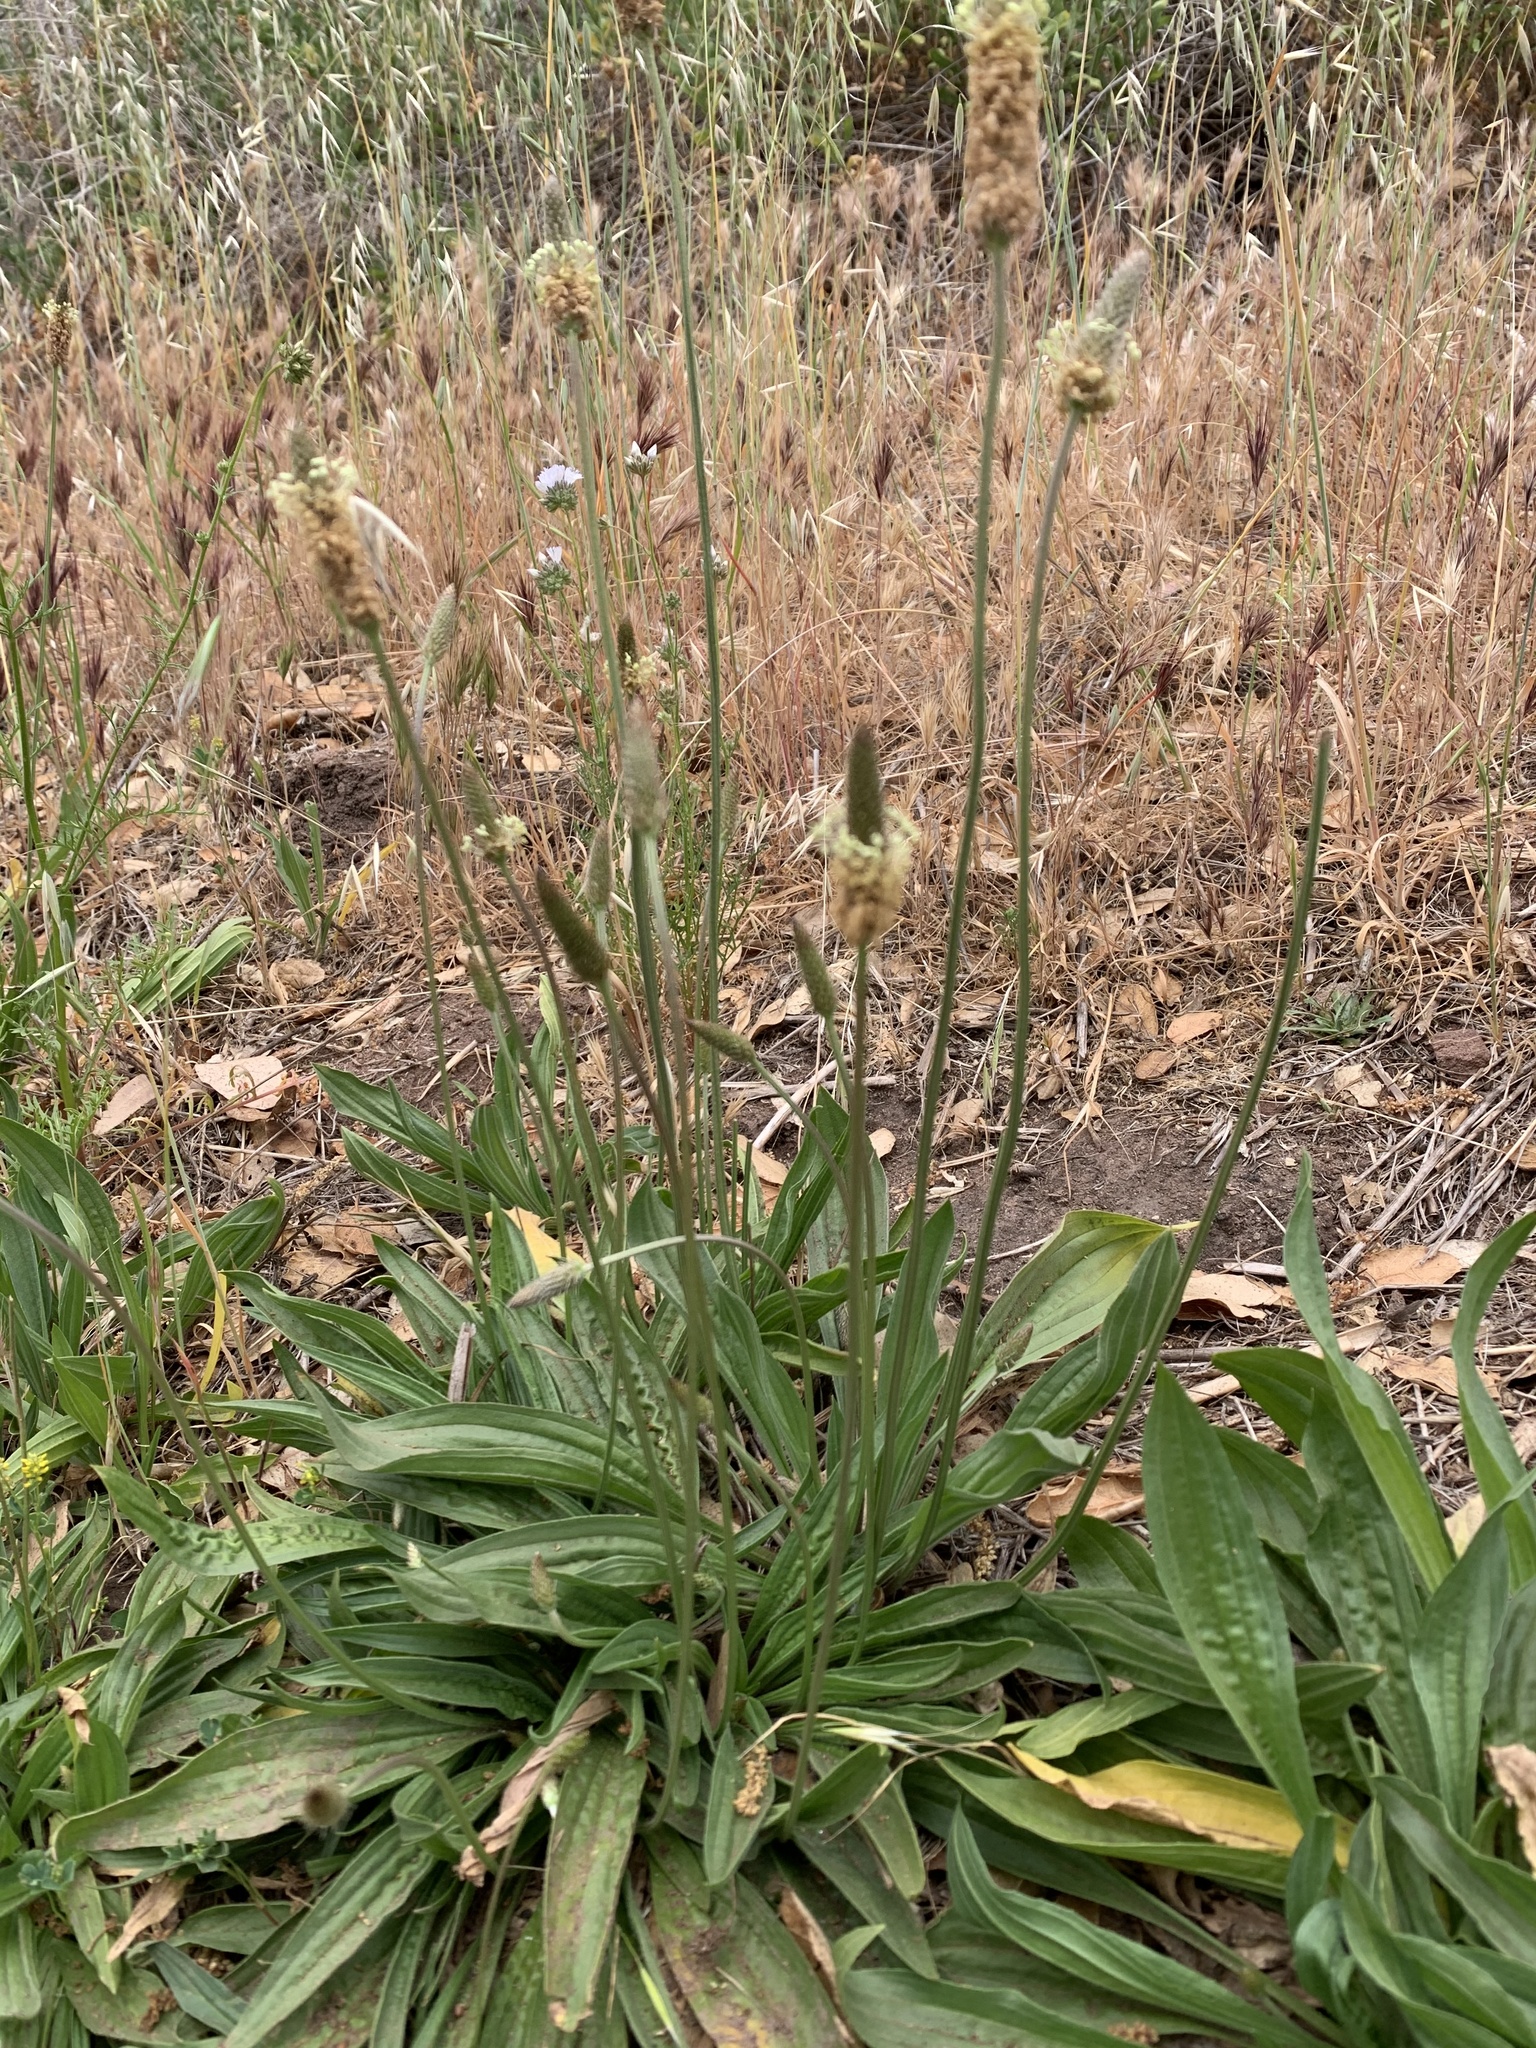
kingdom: Plantae
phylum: Tracheophyta
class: Magnoliopsida
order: Lamiales
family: Plantaginaceae
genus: Plantago
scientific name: Plantago lanceolata
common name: Ribwort plantain
